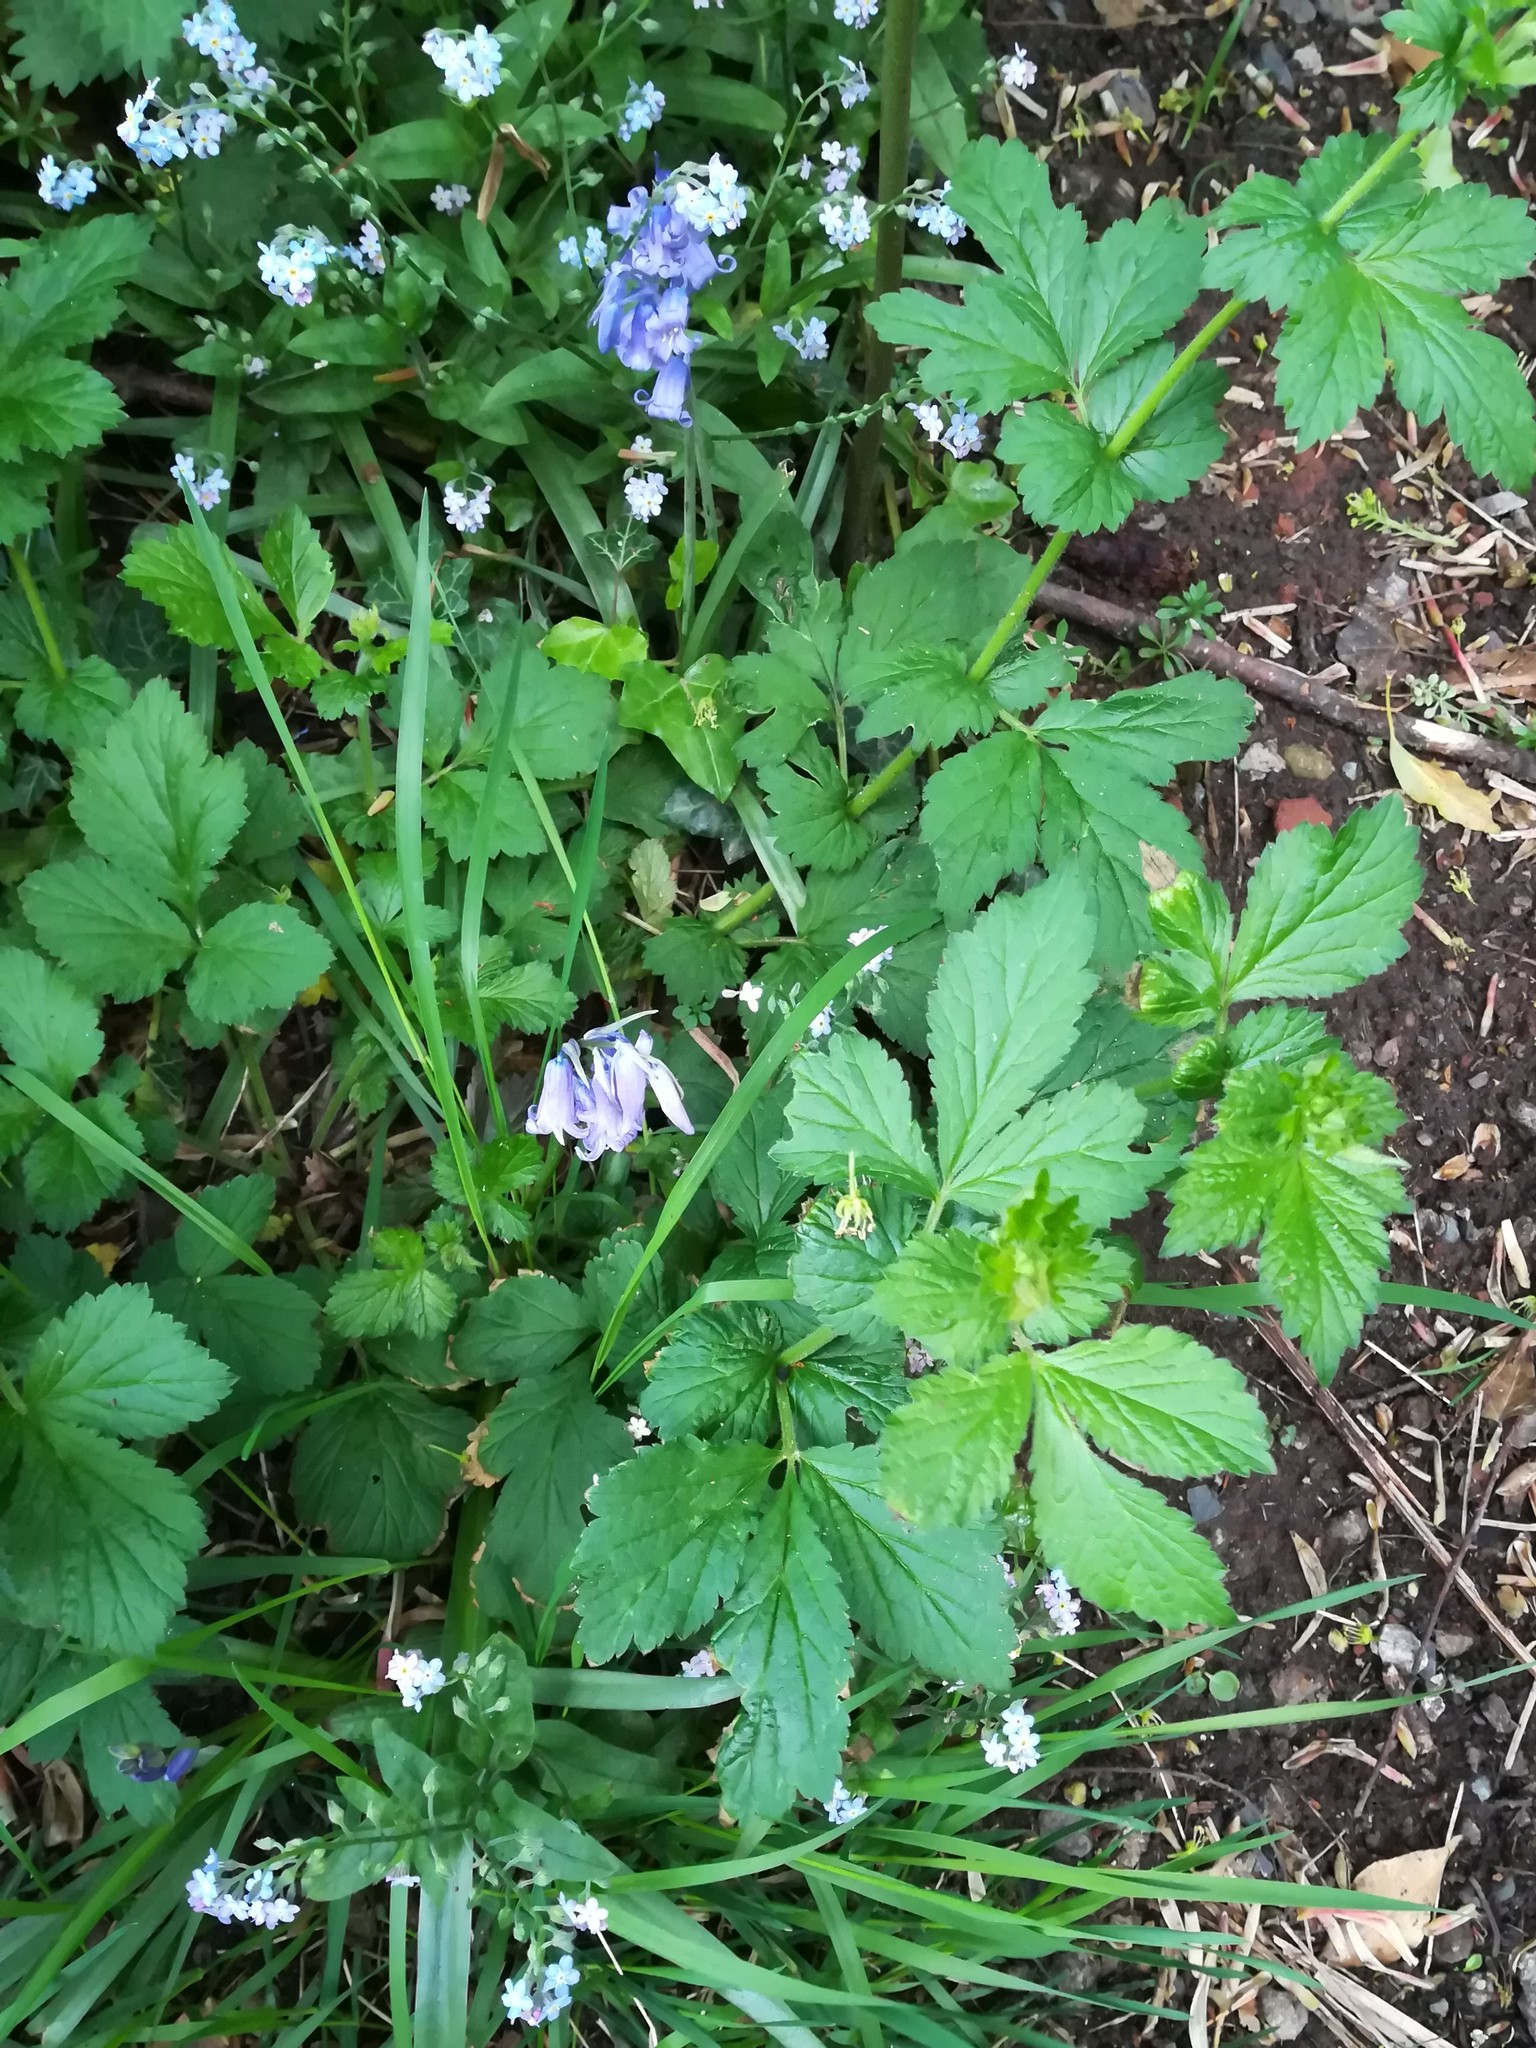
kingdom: Plantae
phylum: Tracheophyta
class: Magnoliopsida
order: Rosales
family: Rosaceae
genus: Geum
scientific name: Geum urbanum
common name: Wood avens
